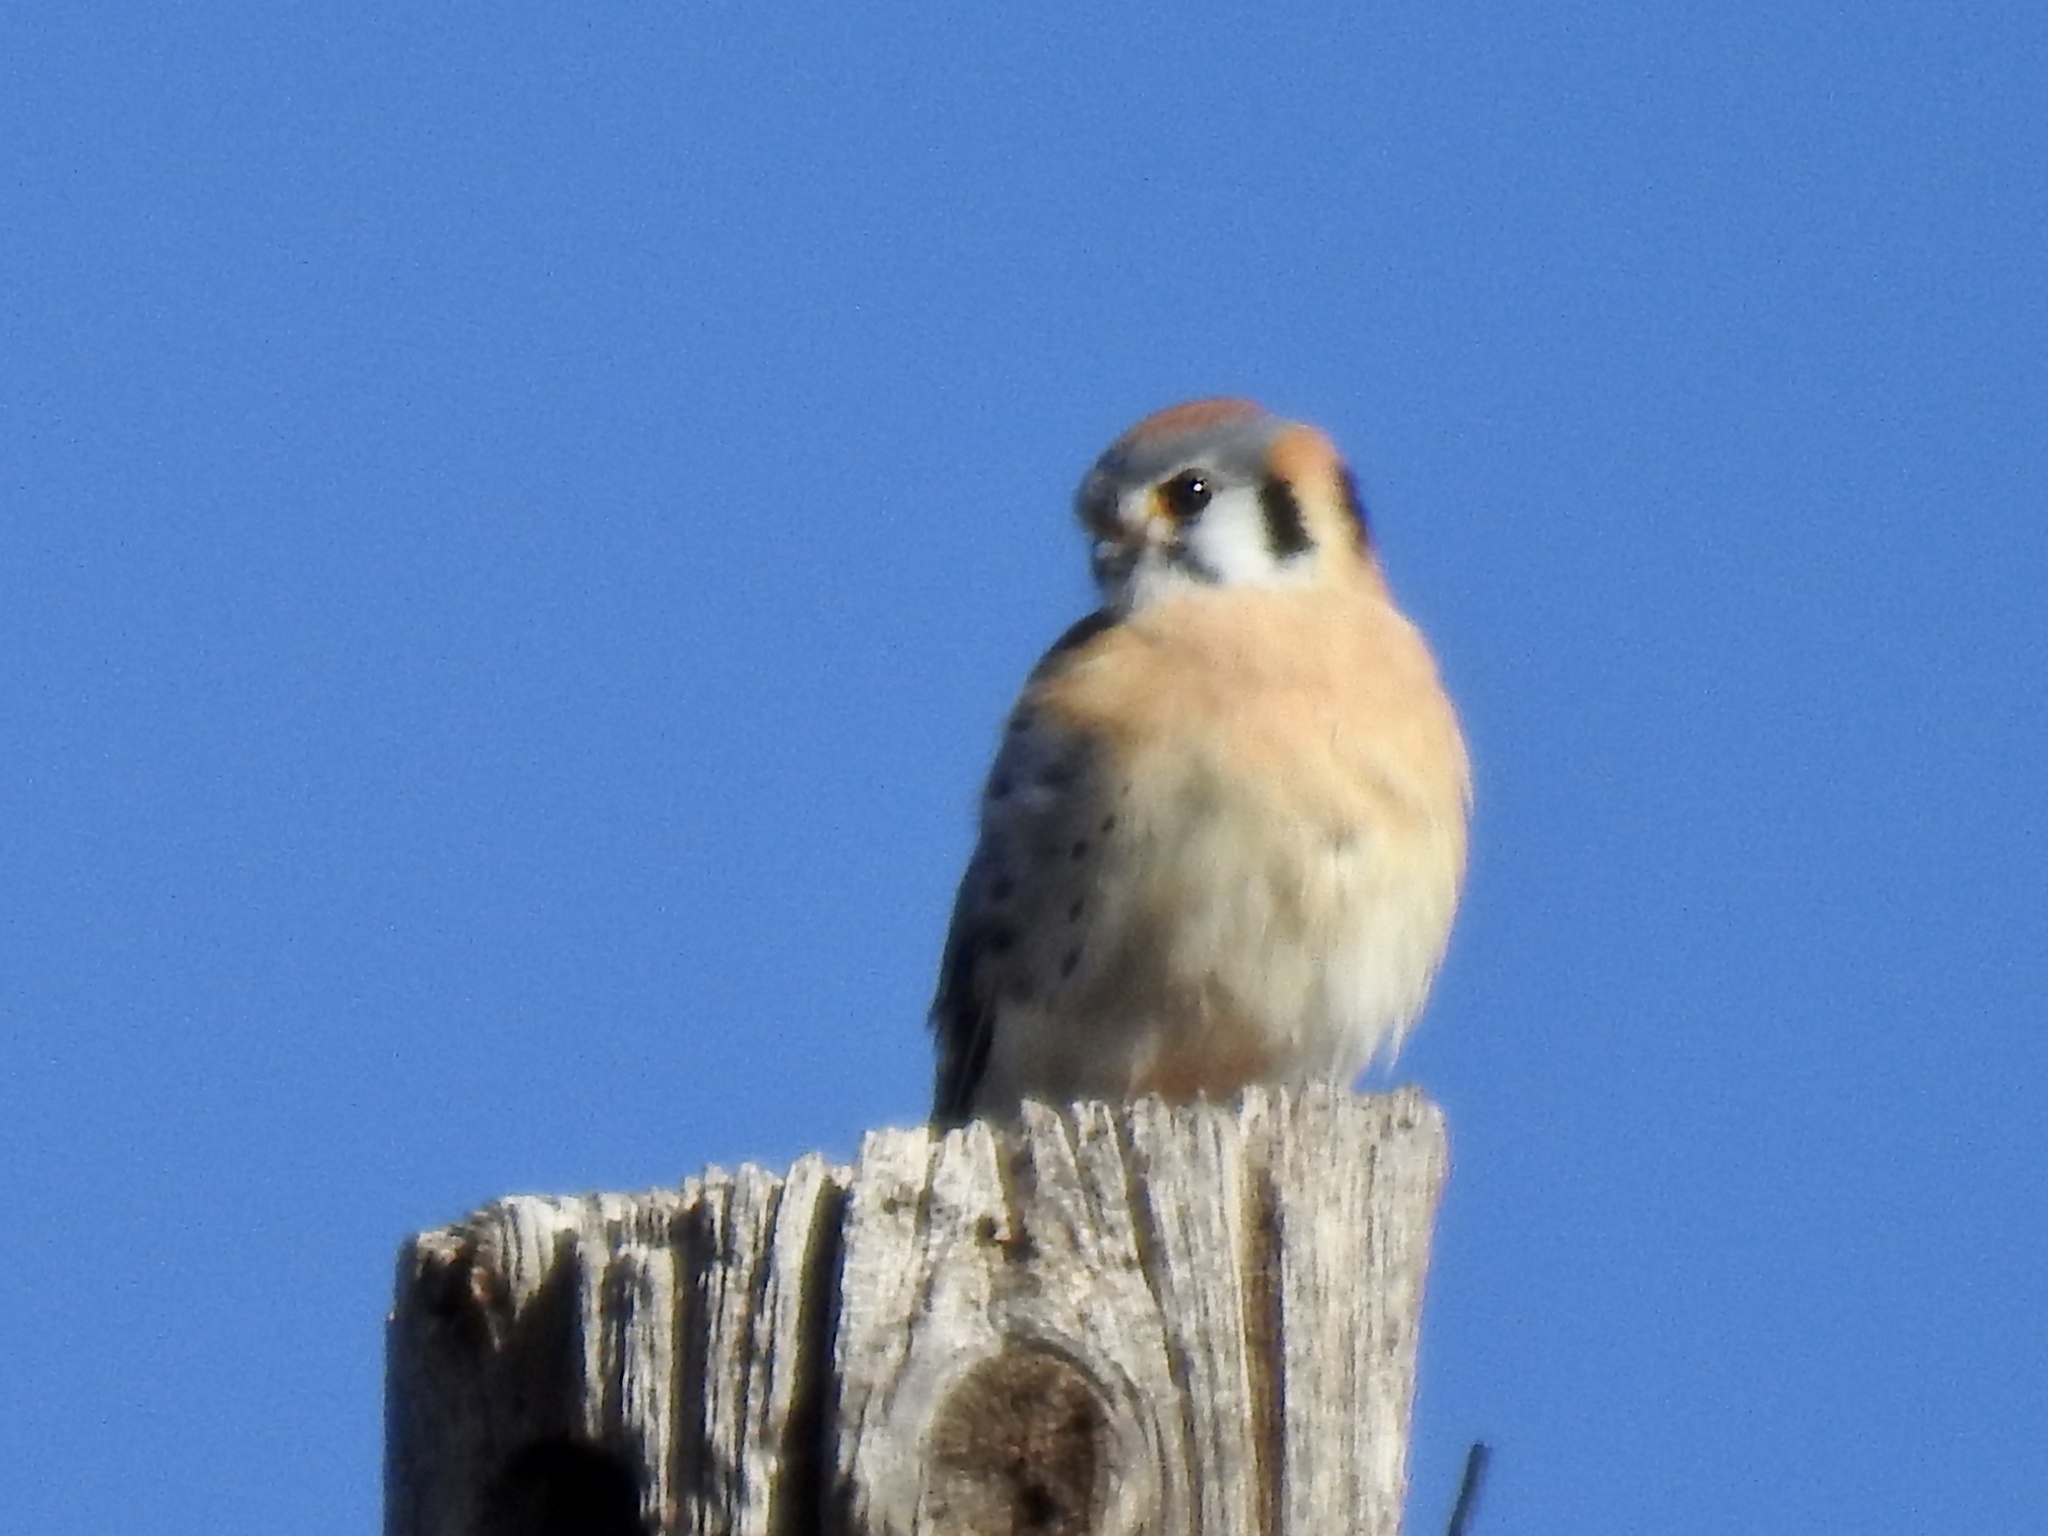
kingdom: Animalia
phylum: Chordata
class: Aves
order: Falconiformes
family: Falconidae
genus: Falco
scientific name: Falco sparverius
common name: American kestrel
